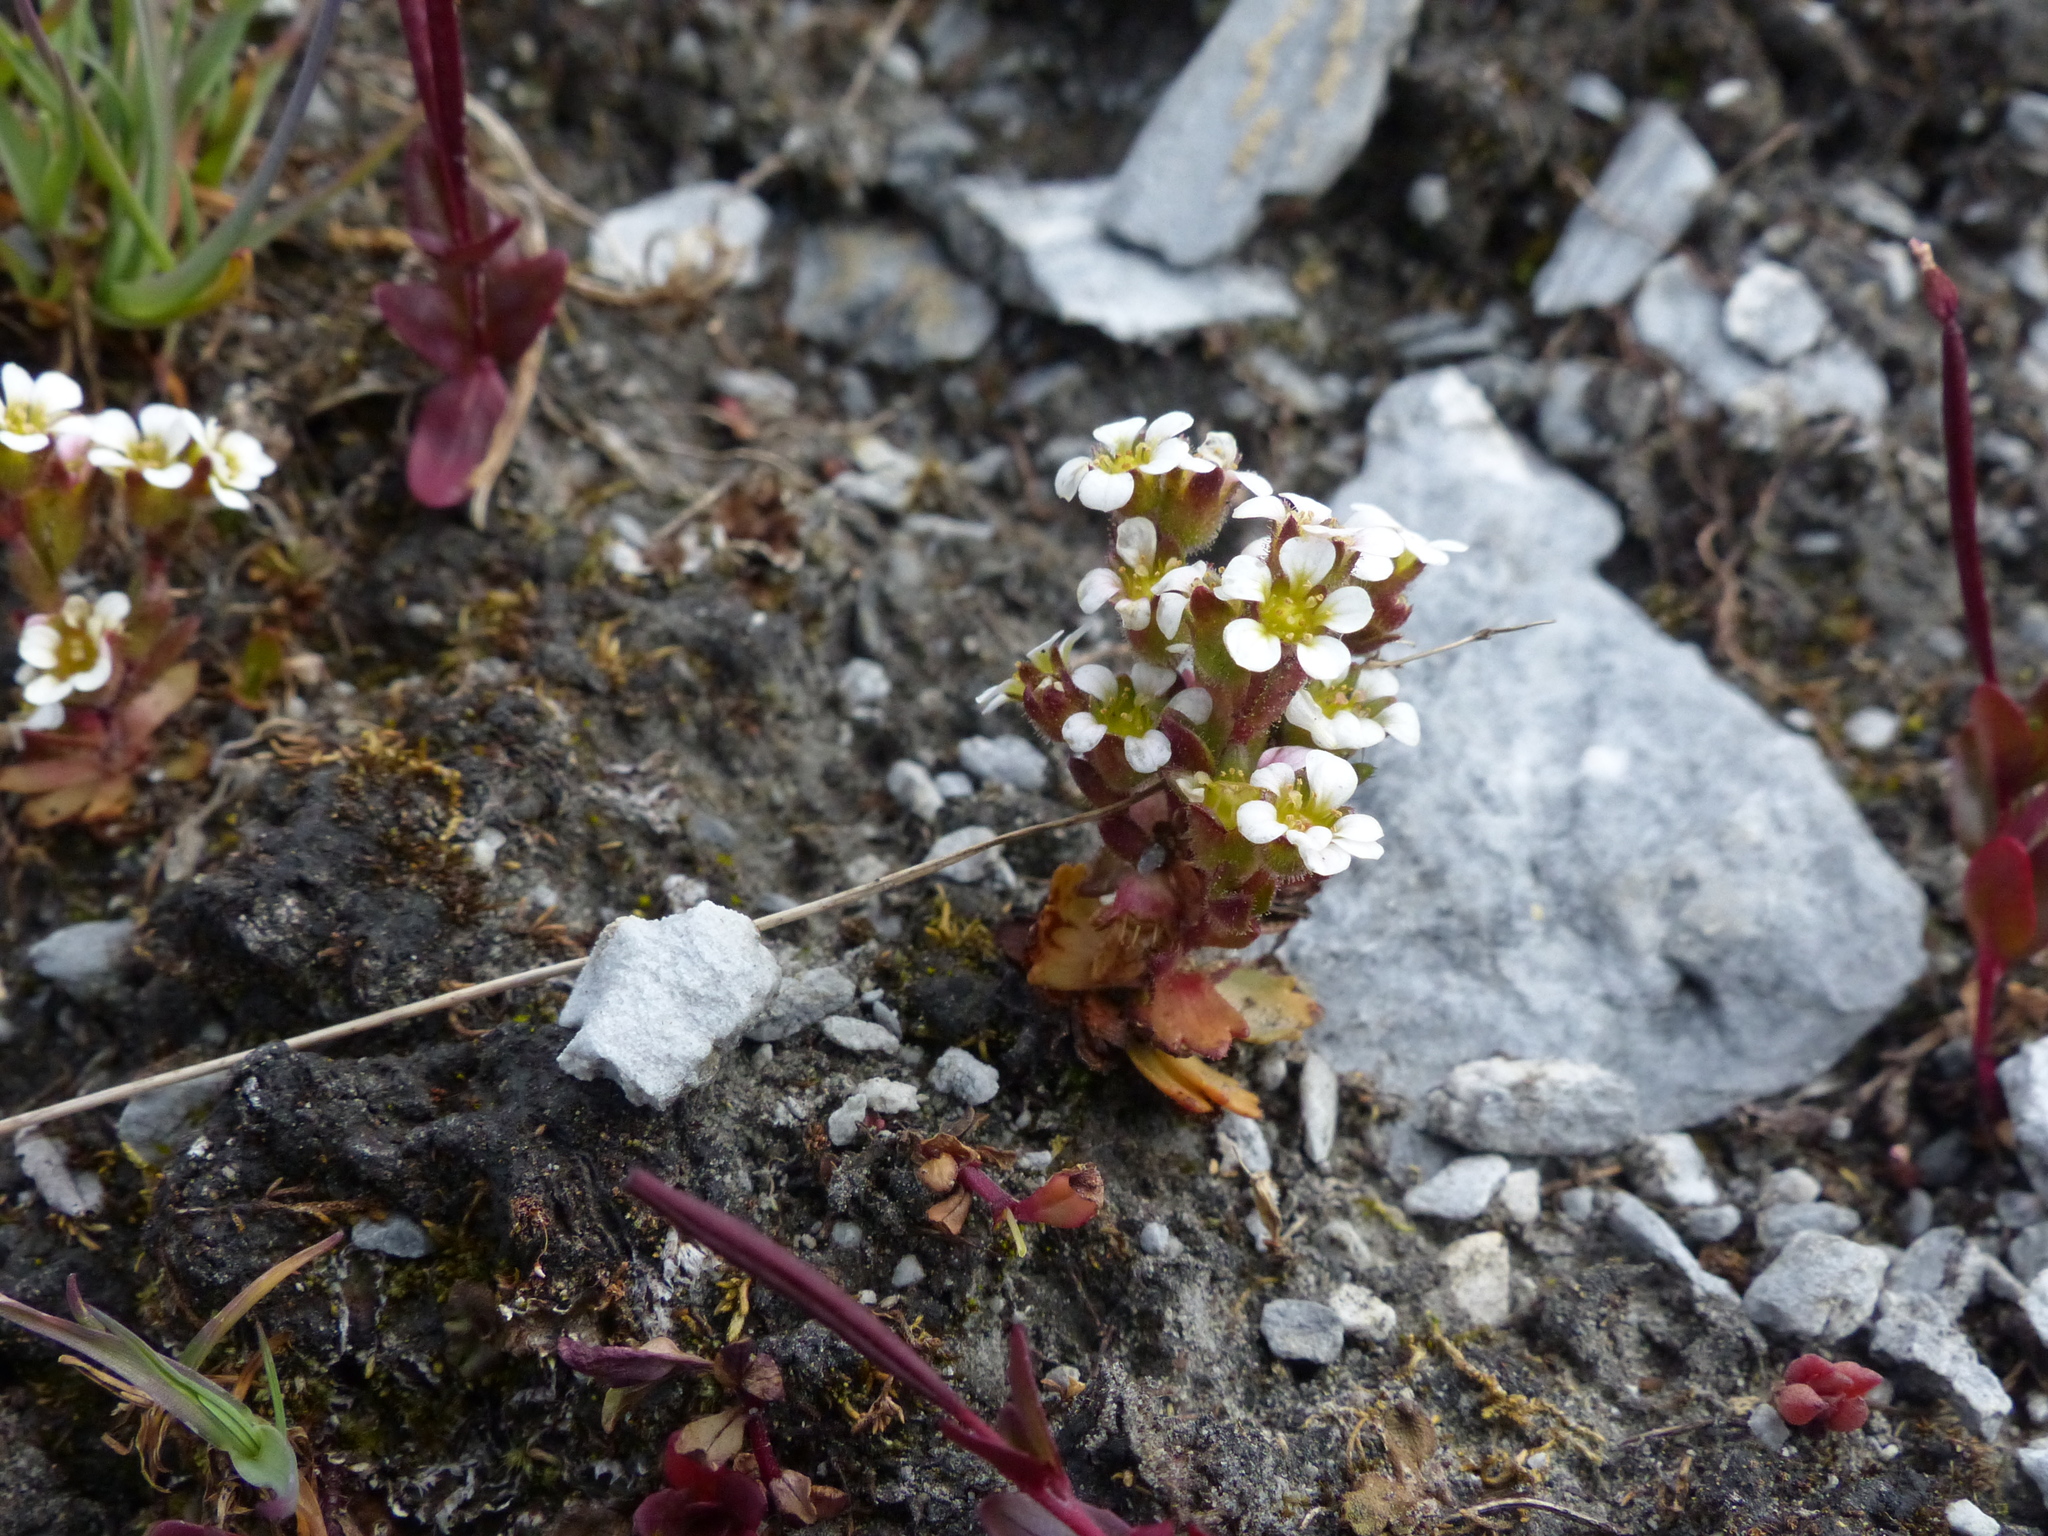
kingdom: Plantae
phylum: Tracheophyta
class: Magnoliopsida
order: Saxifragales
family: Saxifragaceae
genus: Saxifraga
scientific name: Saxifraga adscendens
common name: Ascending saxifrage
